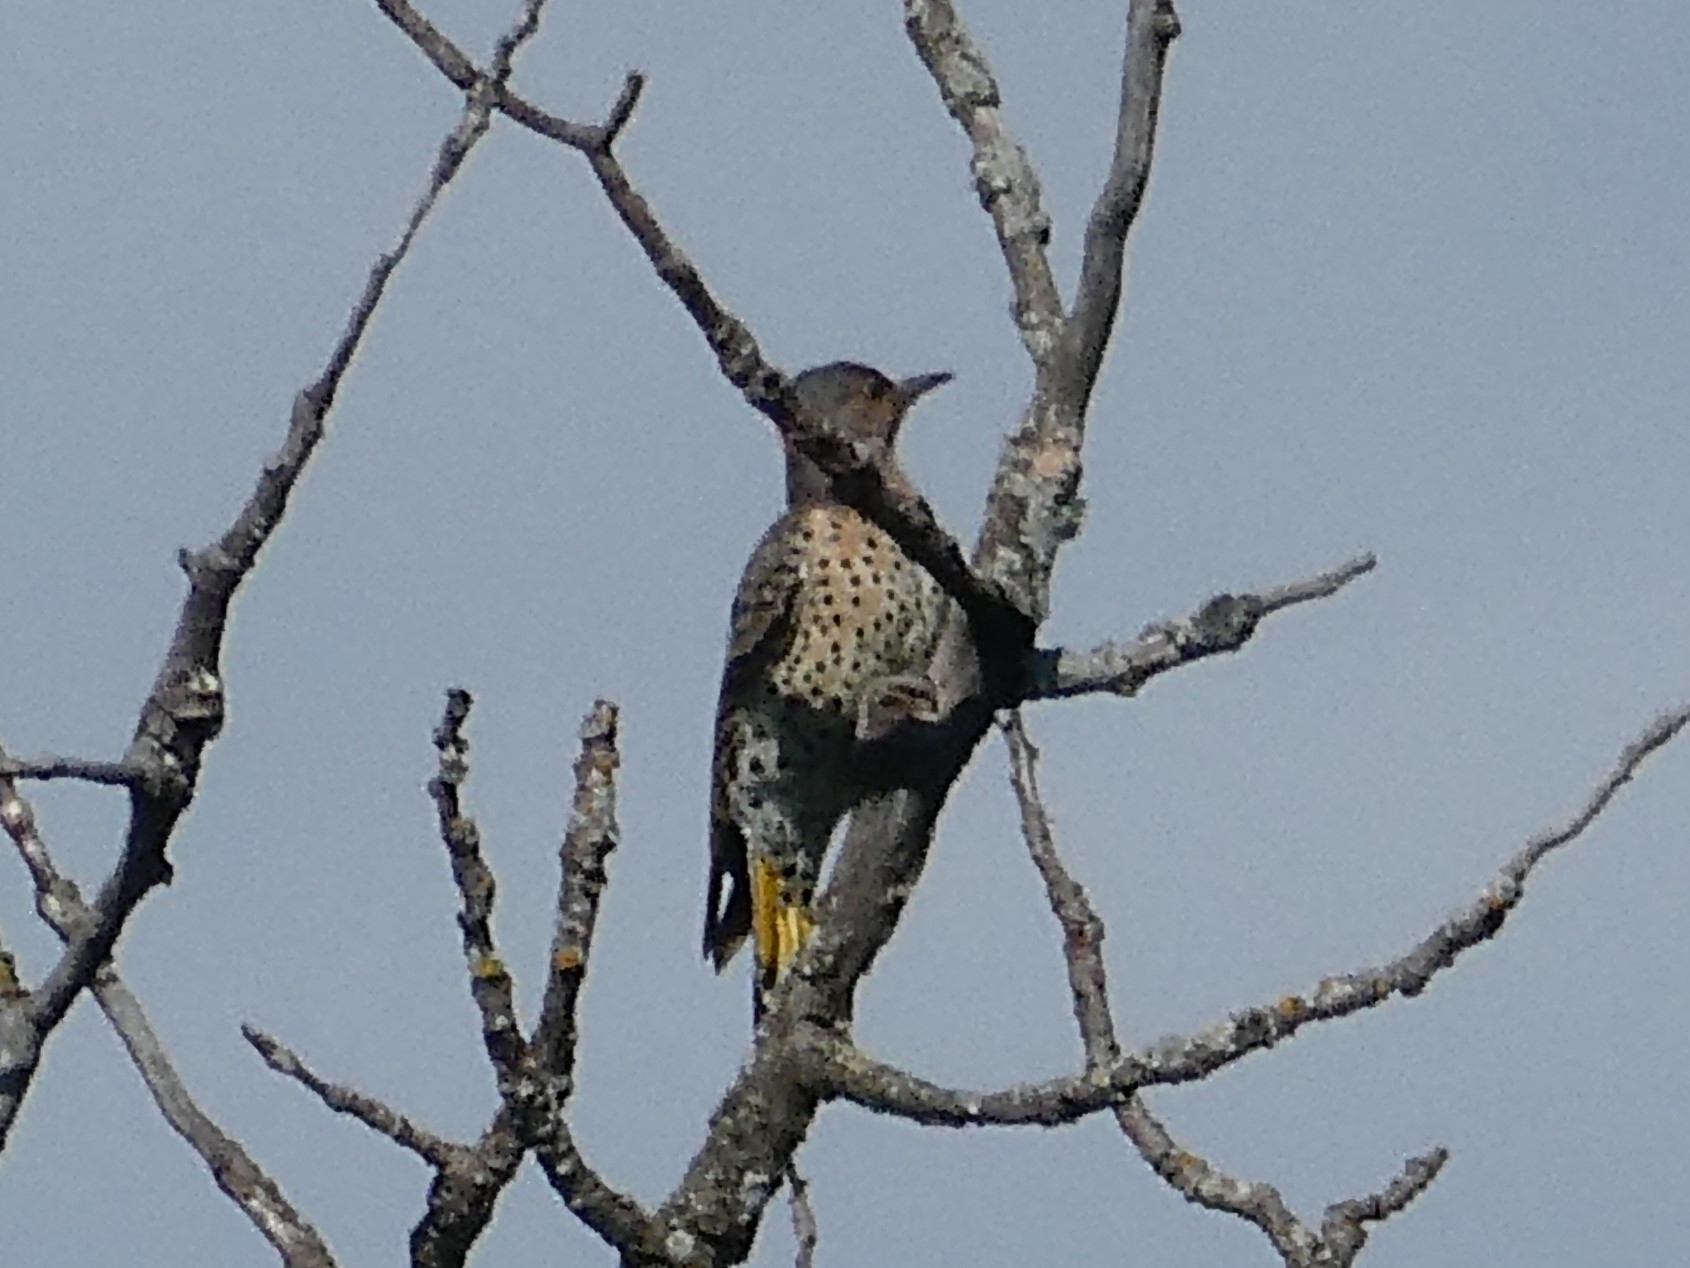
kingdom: Animalia
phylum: Chordata
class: Aves
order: Piciformes
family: Picidae
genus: Colaptes
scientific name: Colaptes auratus
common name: Northern flicker
